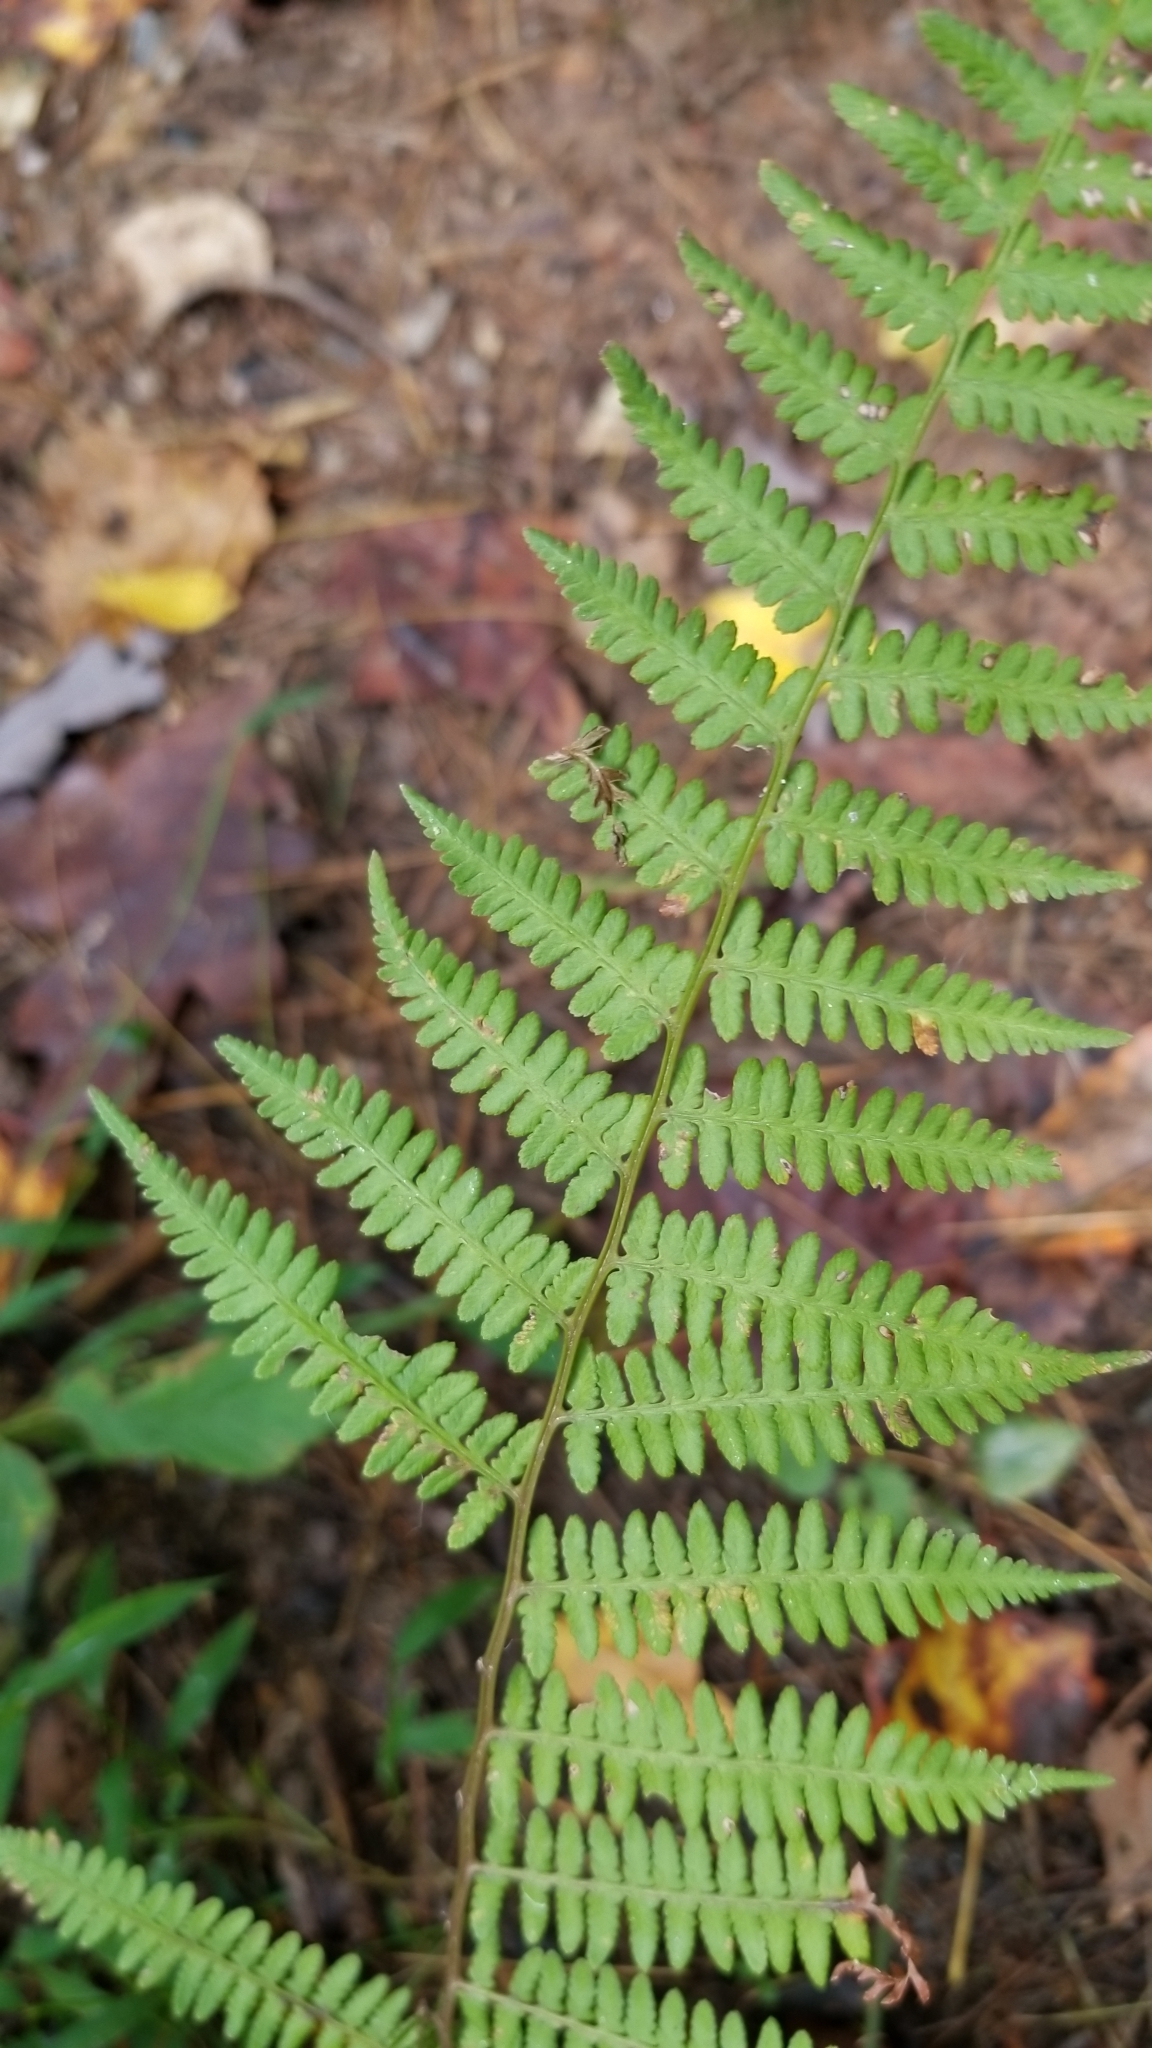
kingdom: Plantae
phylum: Tracheophyta
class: Polypodiopsida
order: Polypodiales
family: Athyriaceae
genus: Athyrium
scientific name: Athyrium asplenioides
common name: Southern lady fern
